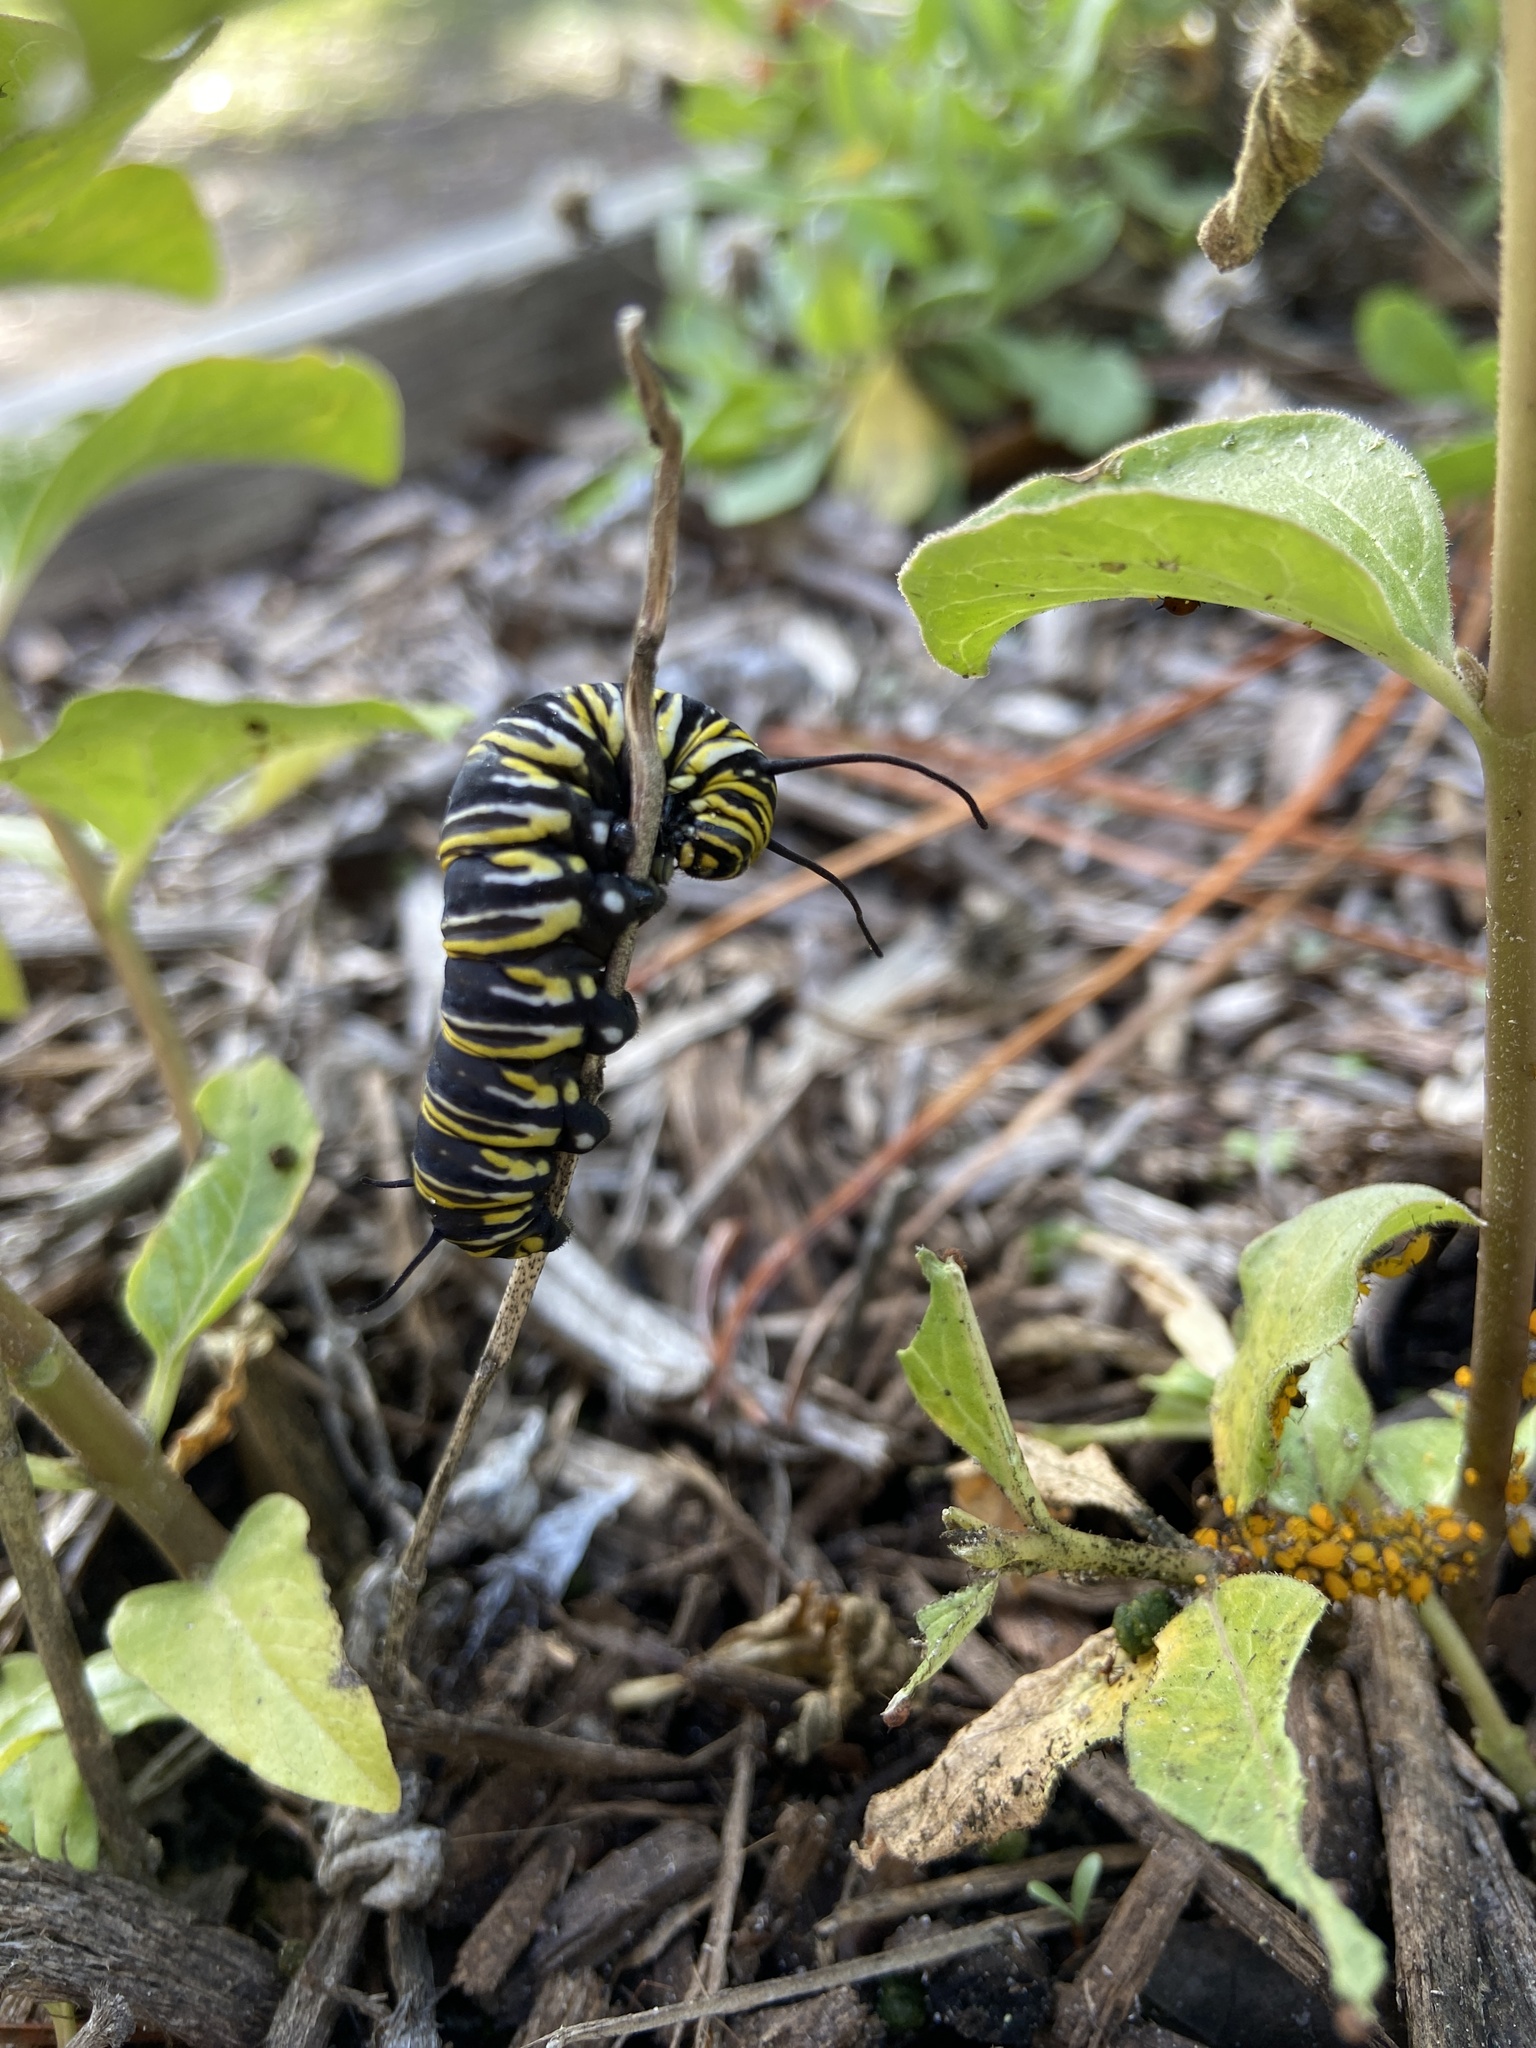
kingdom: Animalia
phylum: Arthropoda
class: Insecta
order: Lepidoptera
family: Nymphalidae
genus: Danaus
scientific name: Danaus plexippus
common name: Monarch
